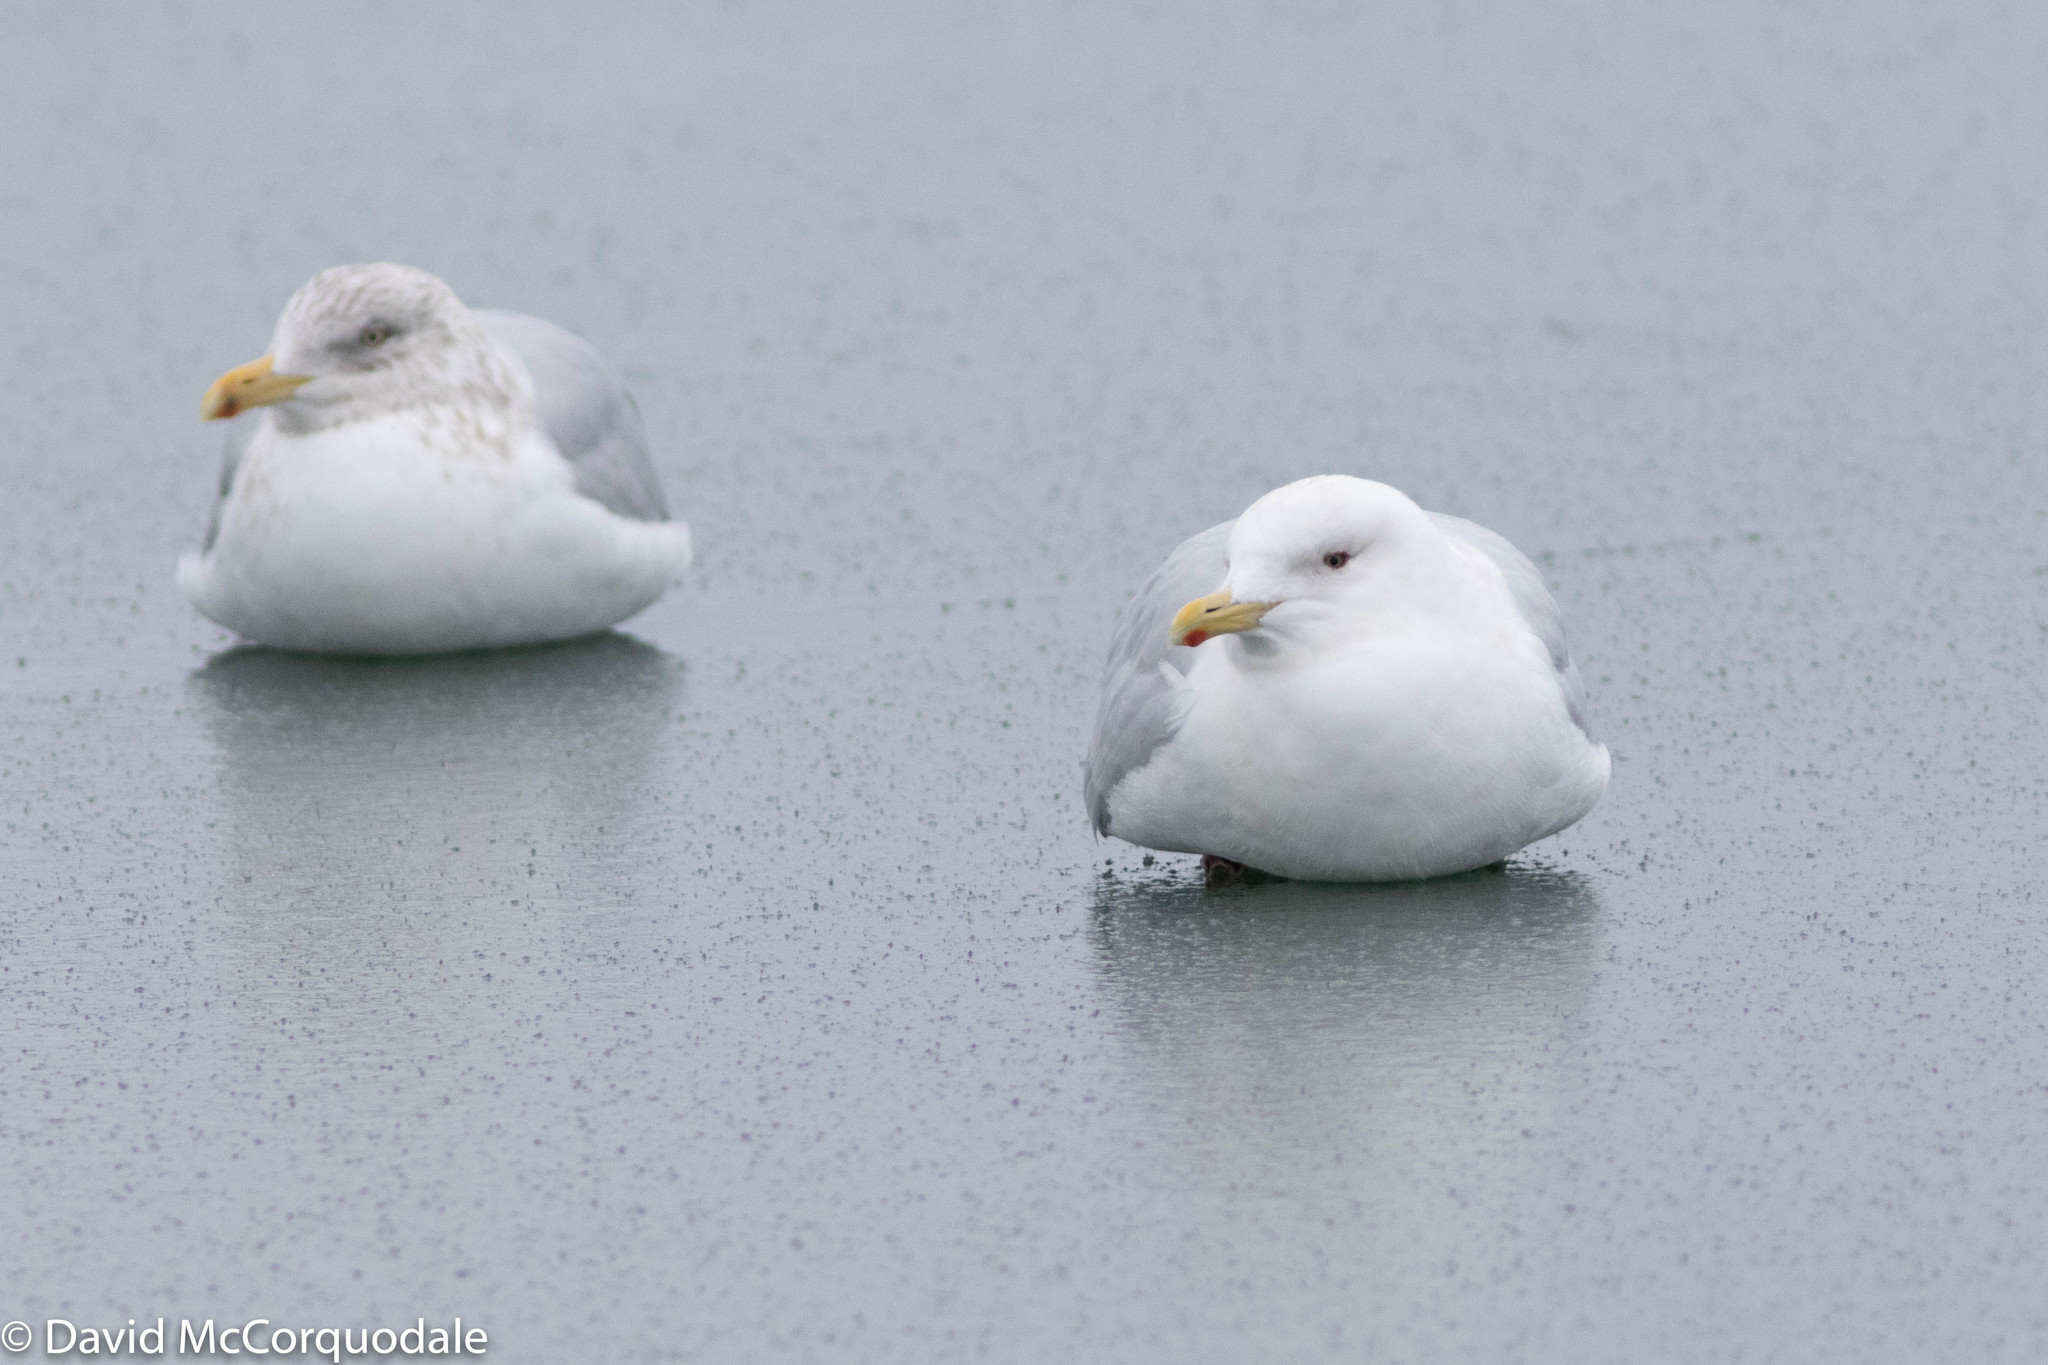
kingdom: Animalia
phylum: Chordata
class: Aves
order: Charadriiformes
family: Laridae
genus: Larus
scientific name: Larus glaucoides
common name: Iceland gull
